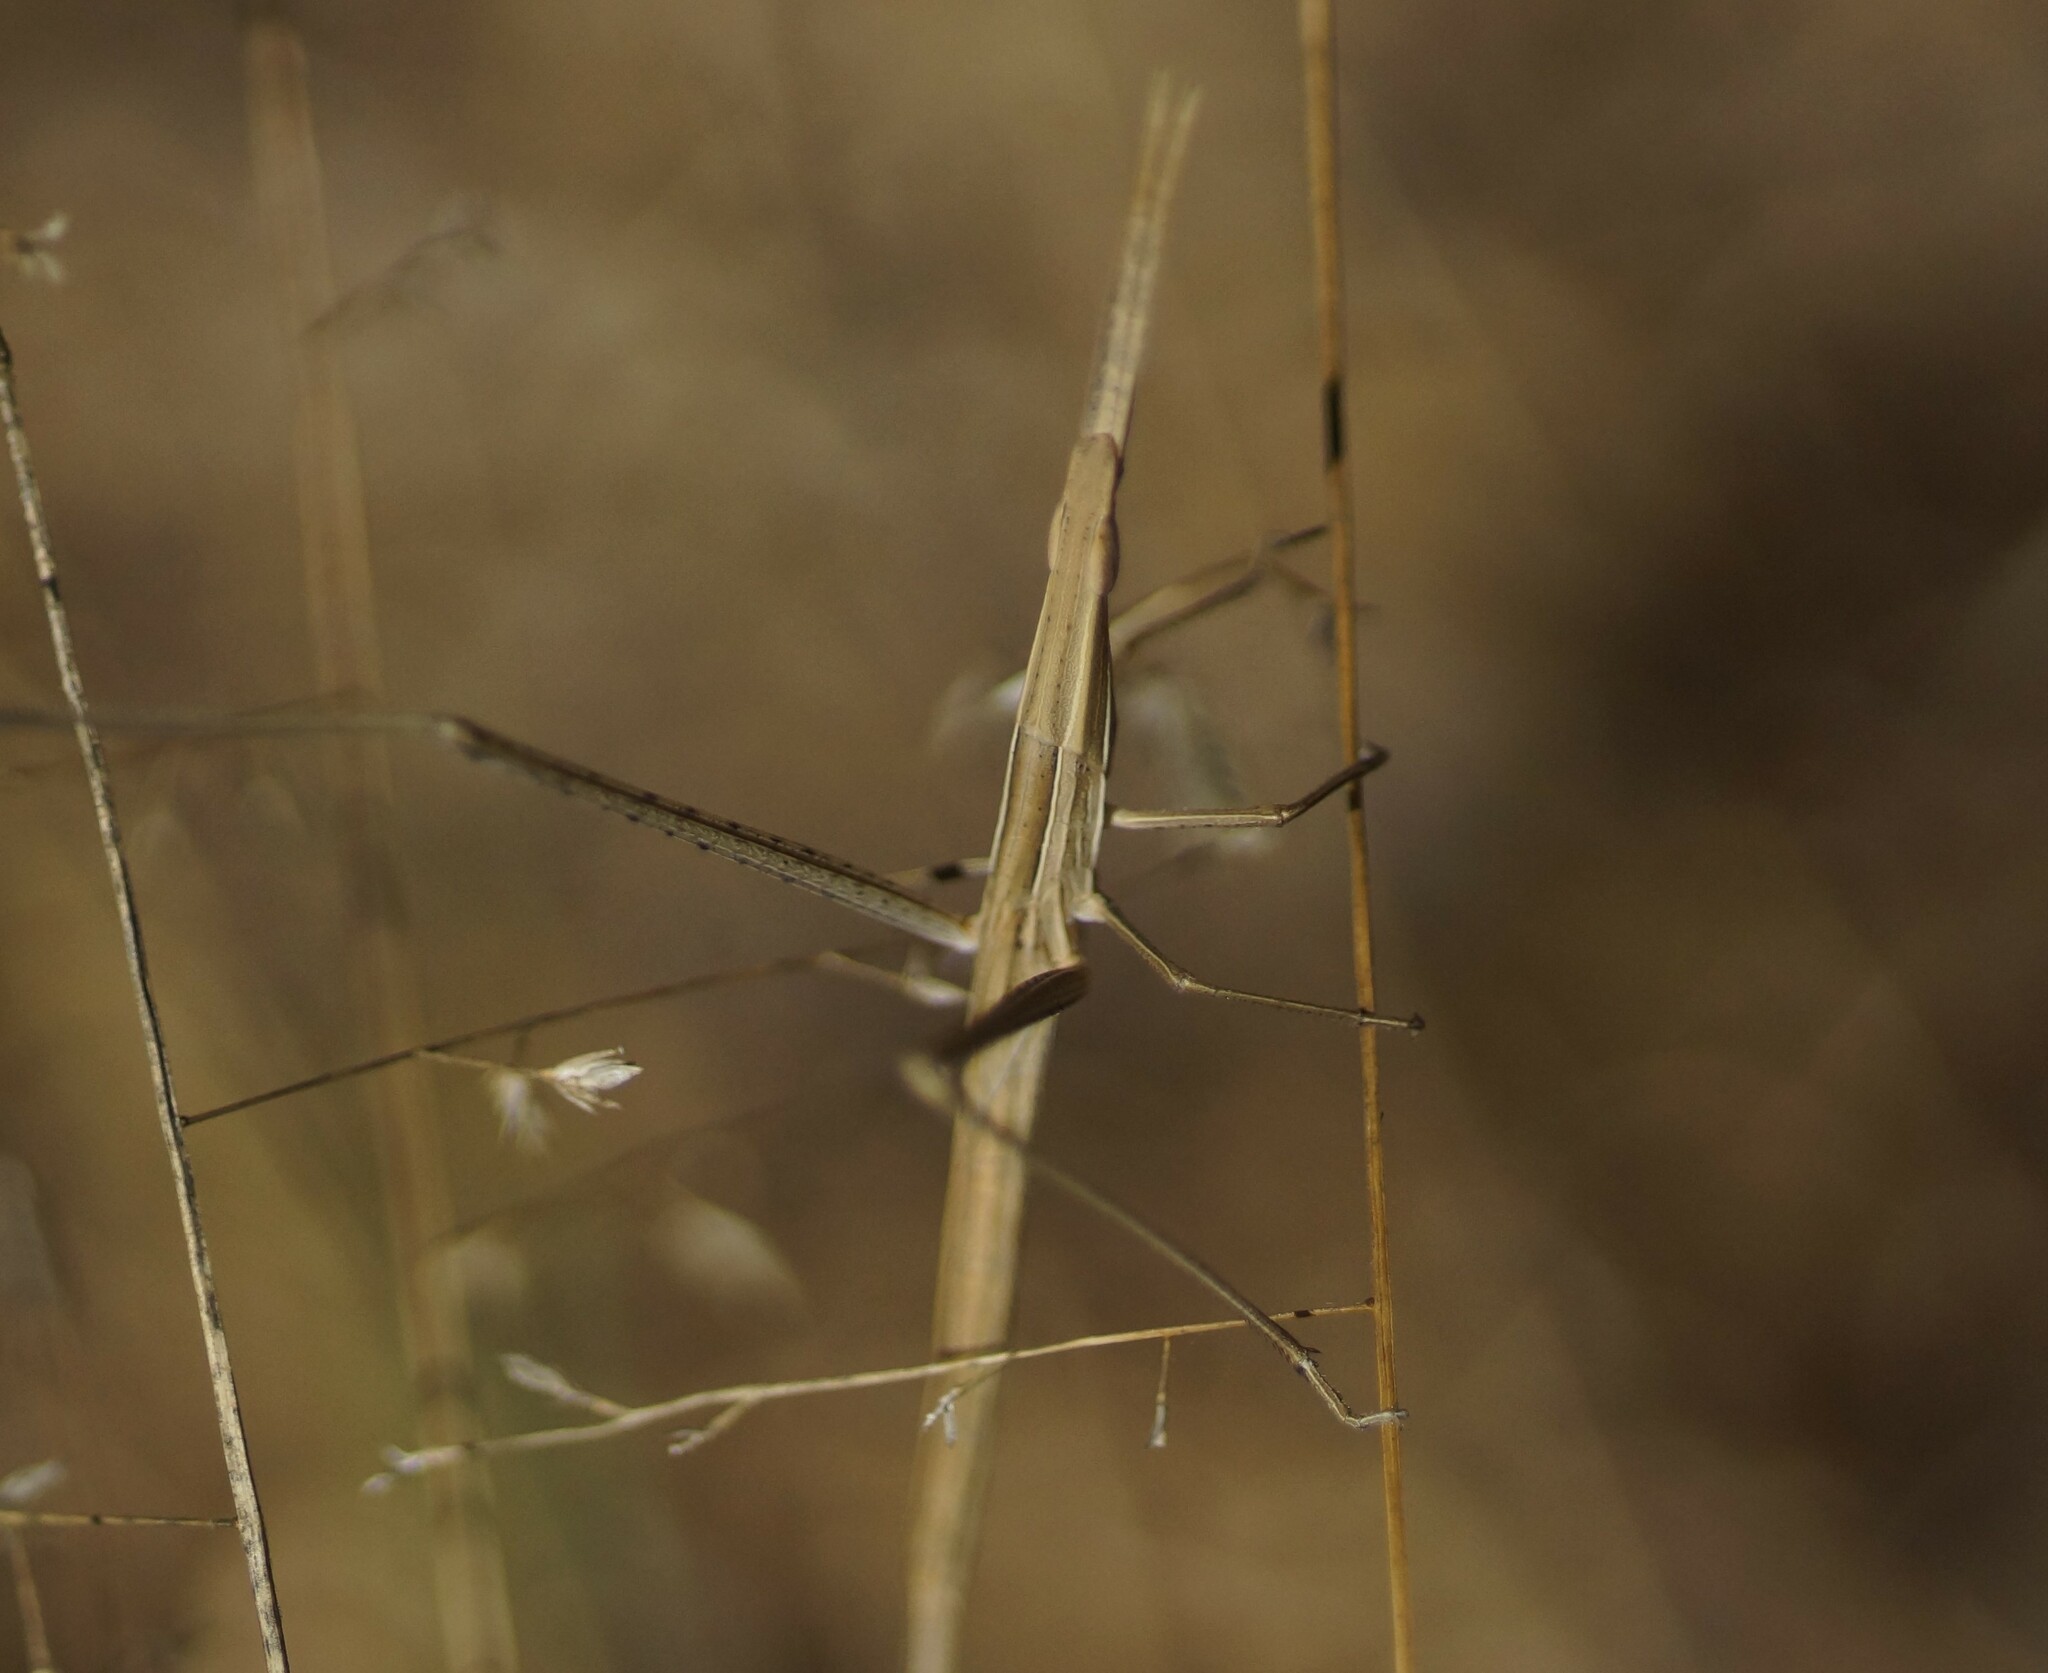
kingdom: Animalia
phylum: Arthropoda
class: Insecta
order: Orthoptera
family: Acrididae
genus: Acrida
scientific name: Acrida conica
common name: Giant green slantface
